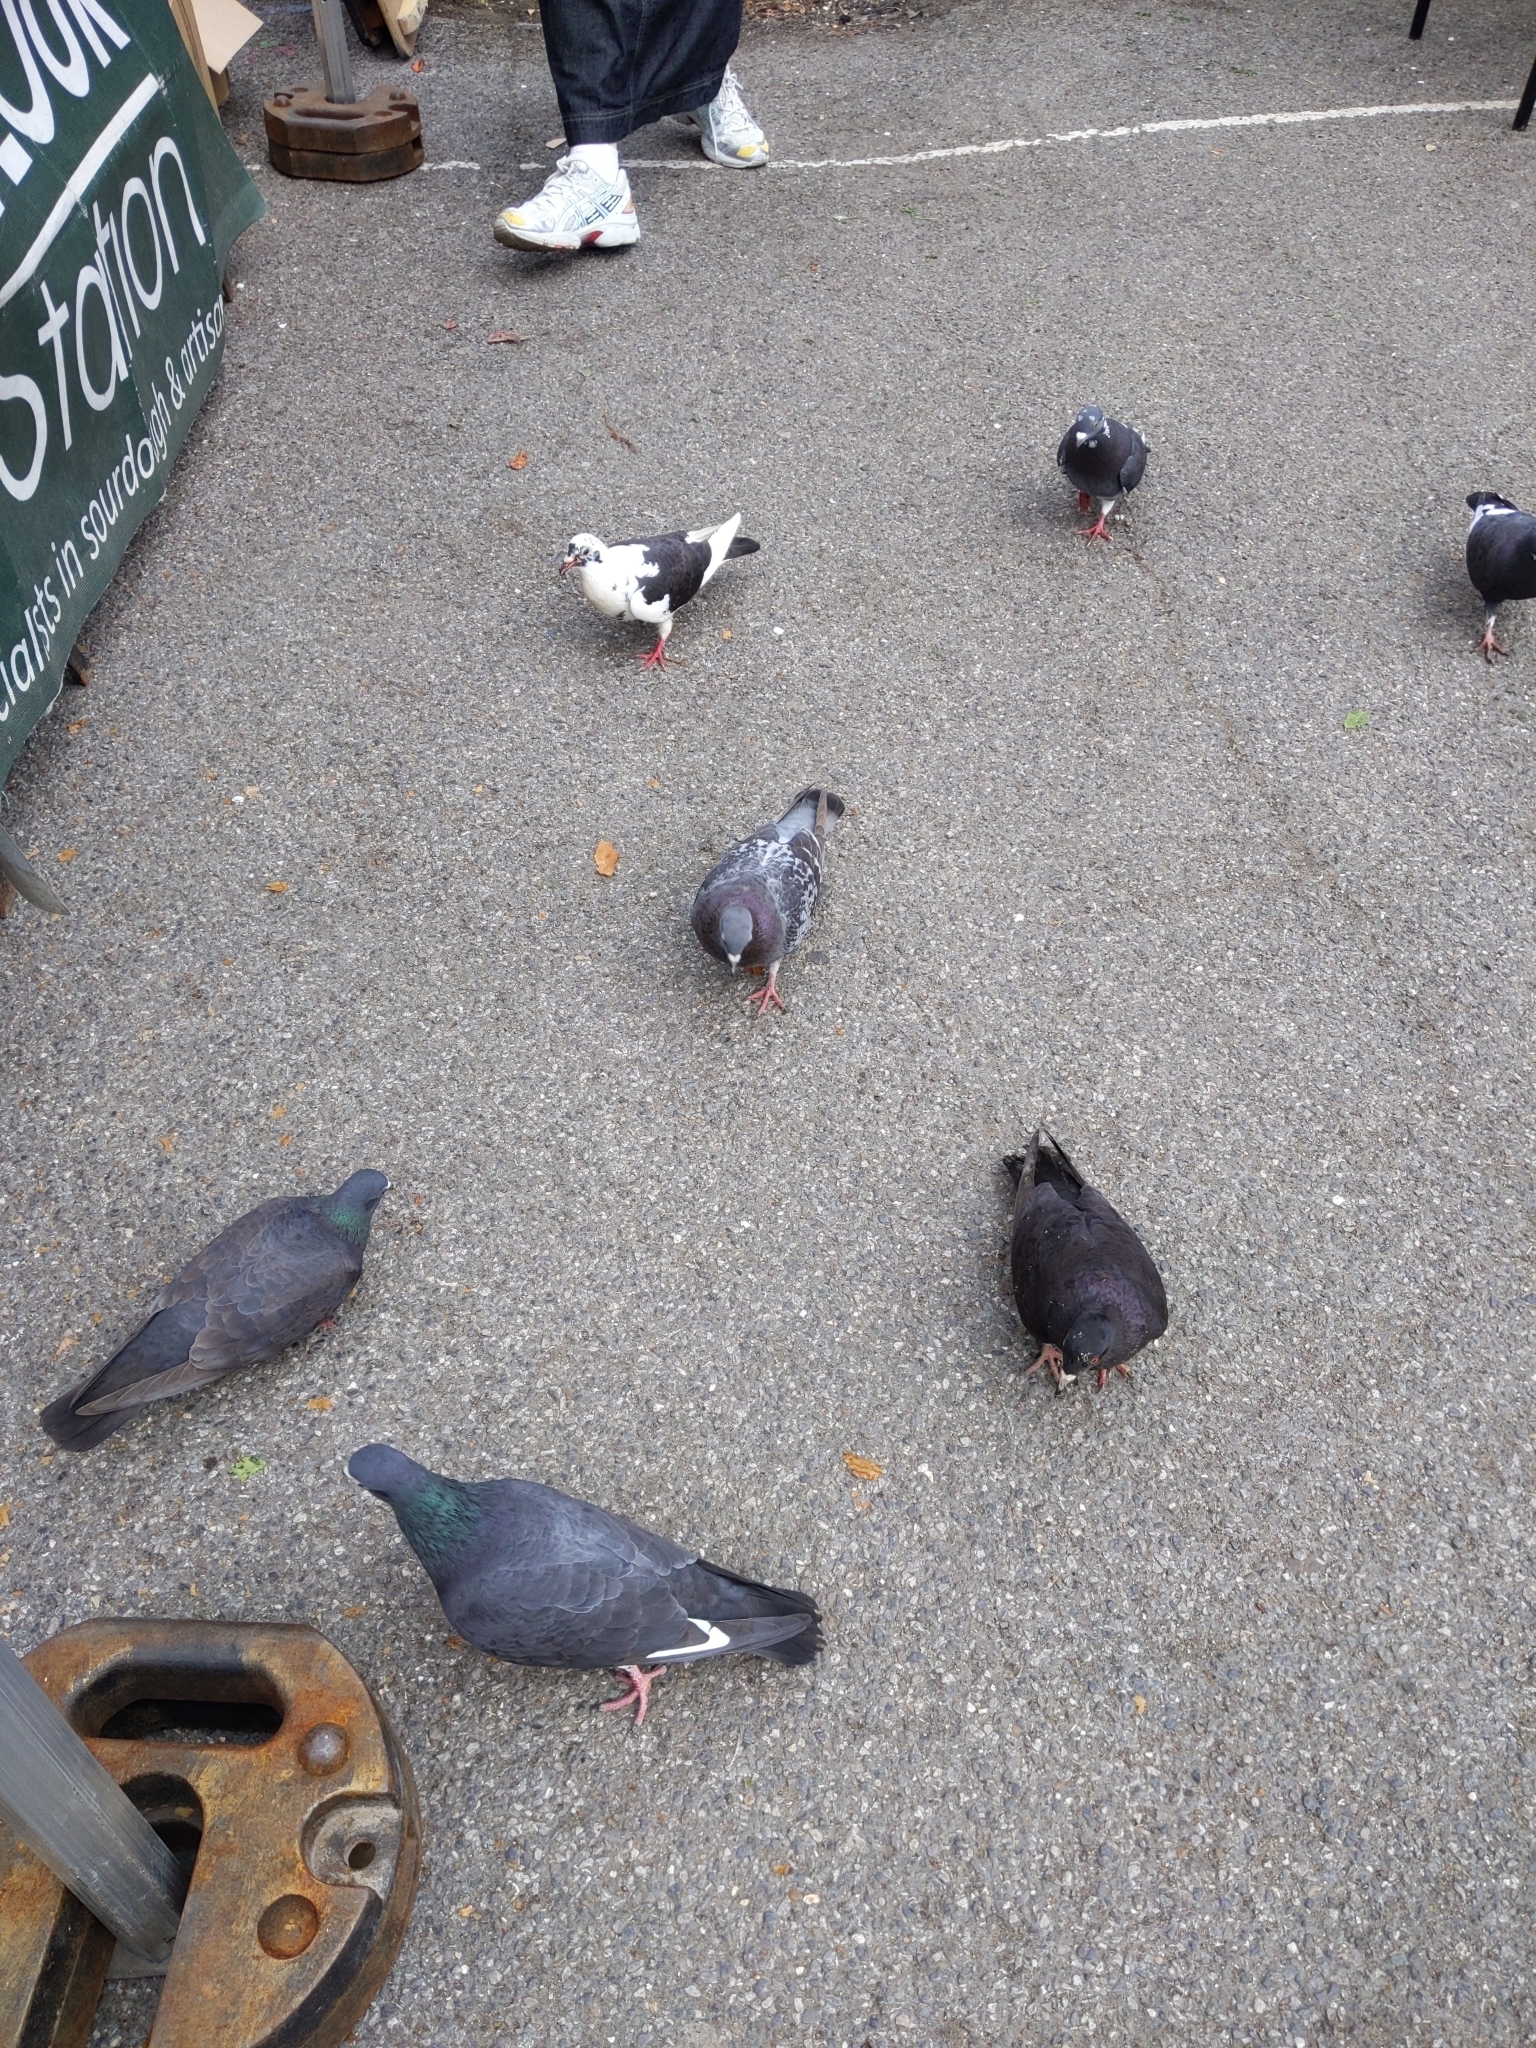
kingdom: Animalia
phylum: Chordata
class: Aves
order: Columbiformes
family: Columbidae
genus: Columba
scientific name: Columba livia
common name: Rock pigeon
